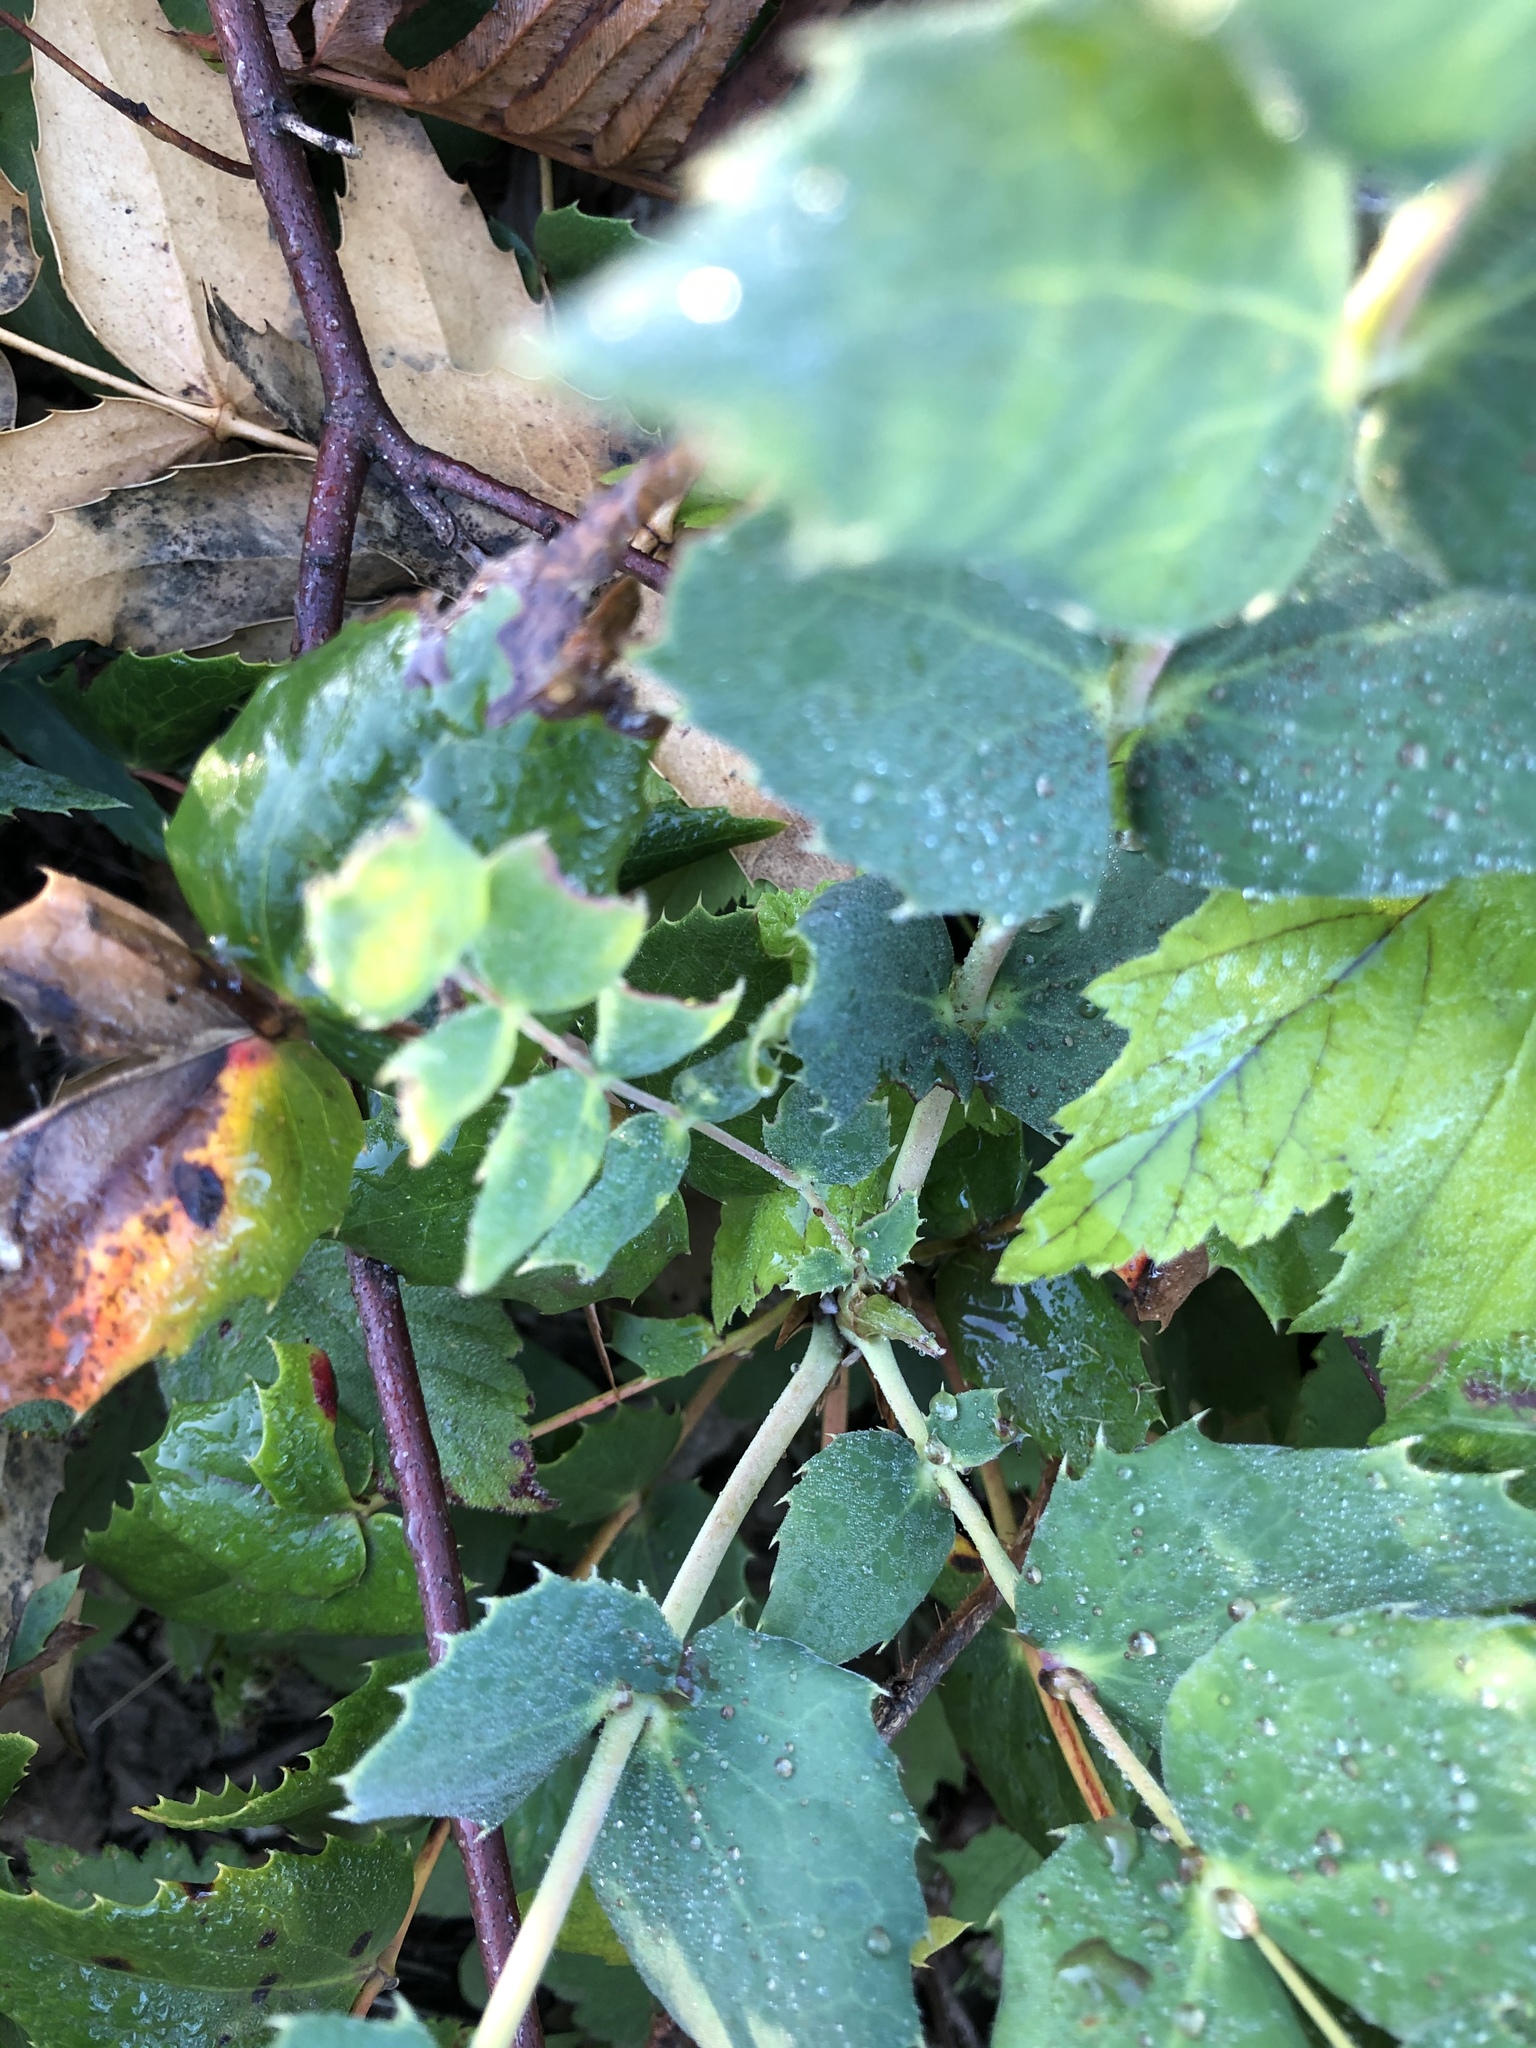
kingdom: Plantae
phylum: Tracheophyta
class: Magnoliopsida
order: Ranunculales
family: Berberidaceae
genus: Mahonia
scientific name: Mahonia nervosa
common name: Cascade oregon-grape
